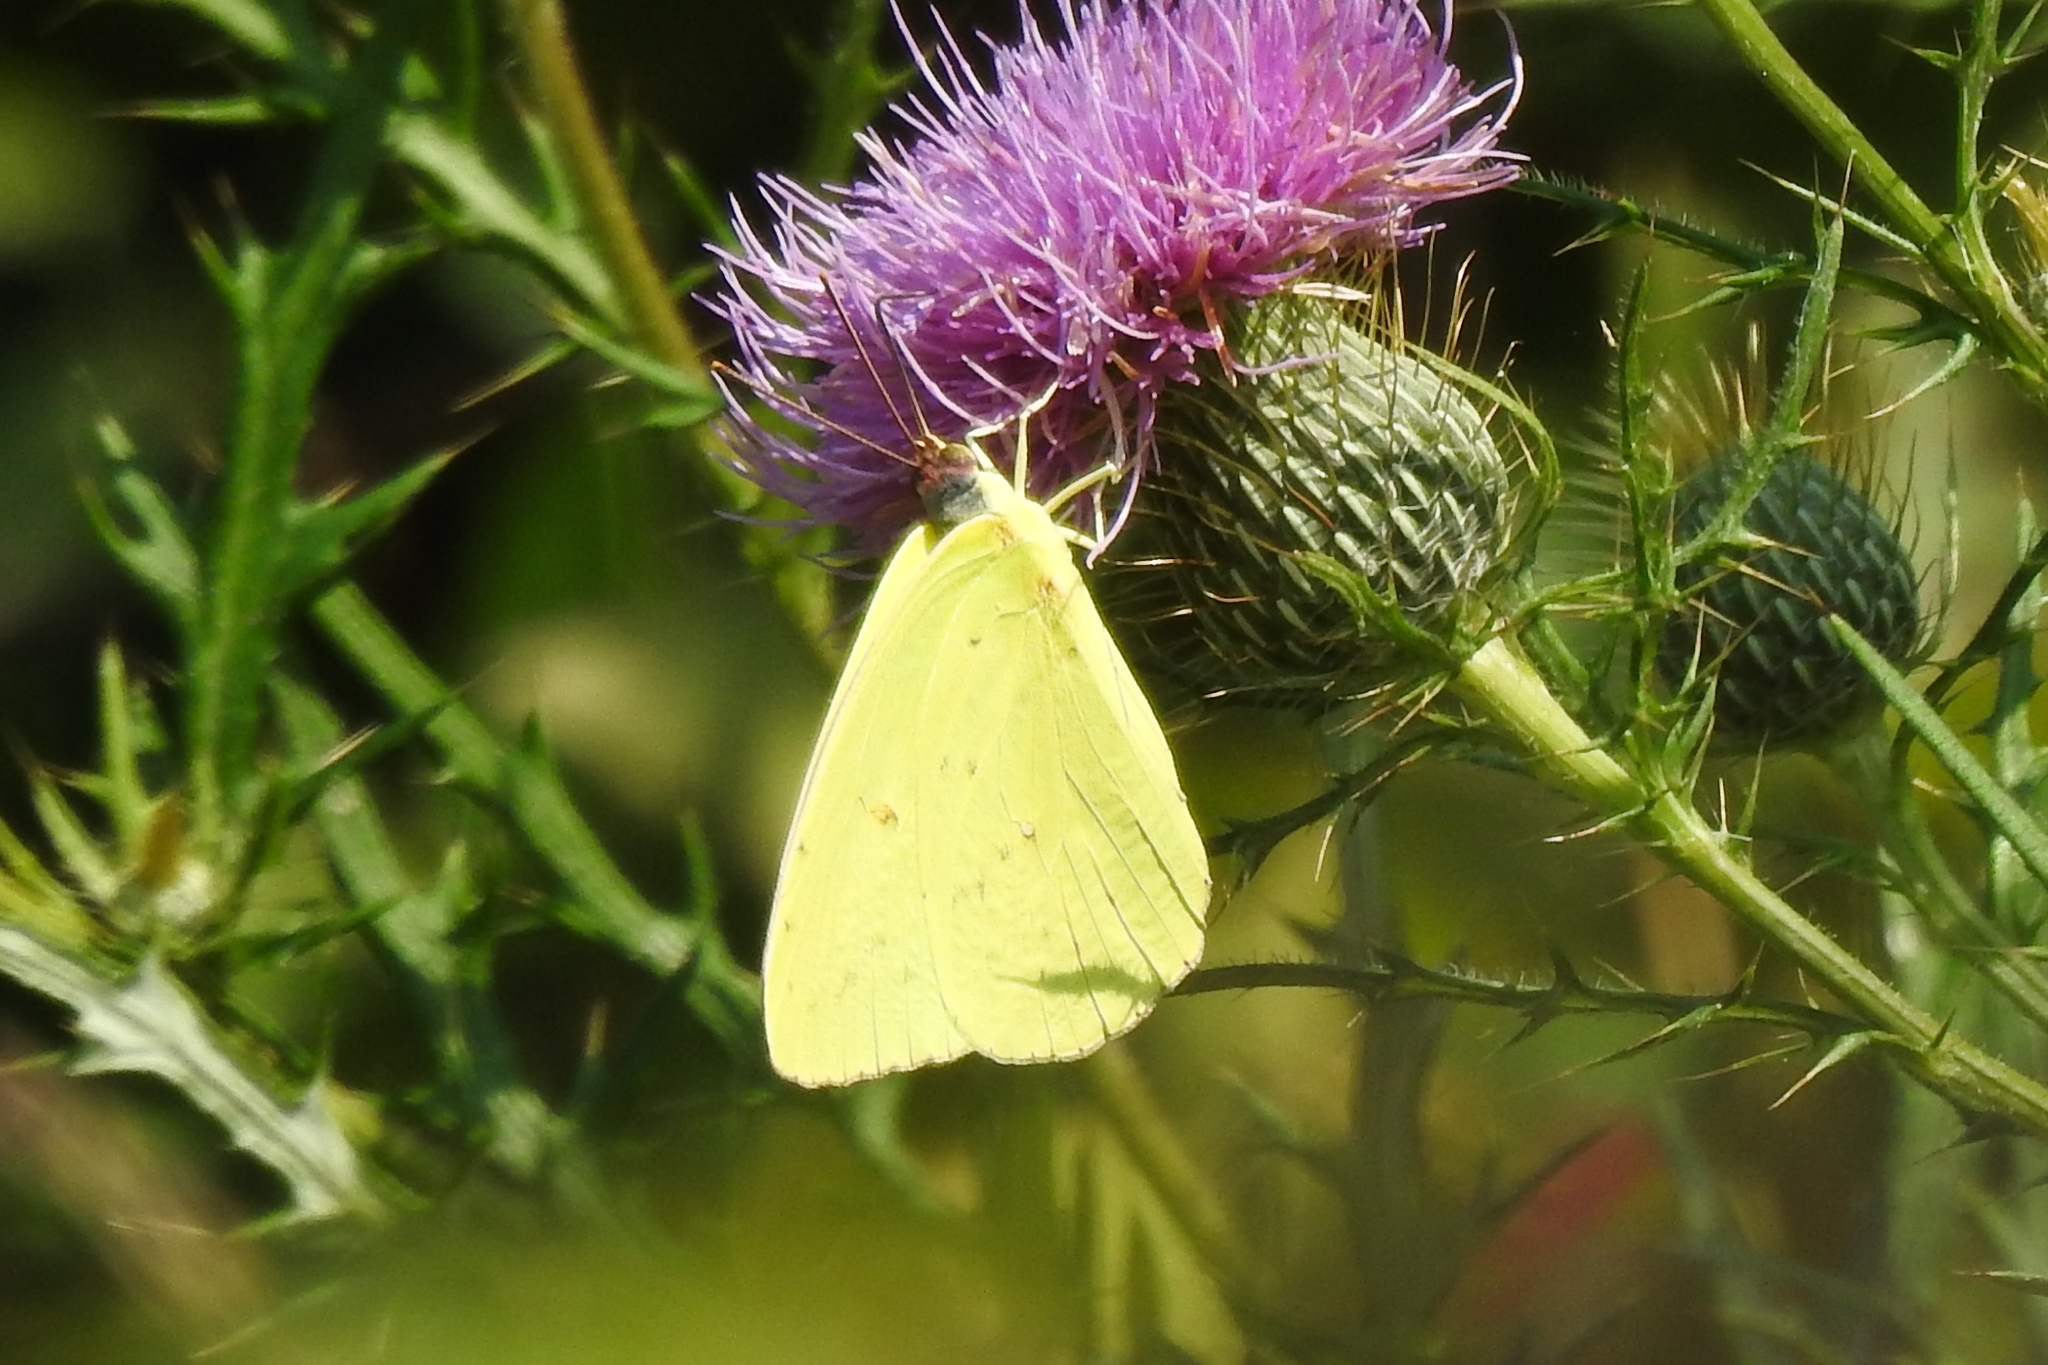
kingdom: Animalia
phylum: Arthropoda
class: Insecta
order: Lepidoptera
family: Pieridae
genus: Phoebis
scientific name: Phoebis sennae
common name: Cloudless sulphur
